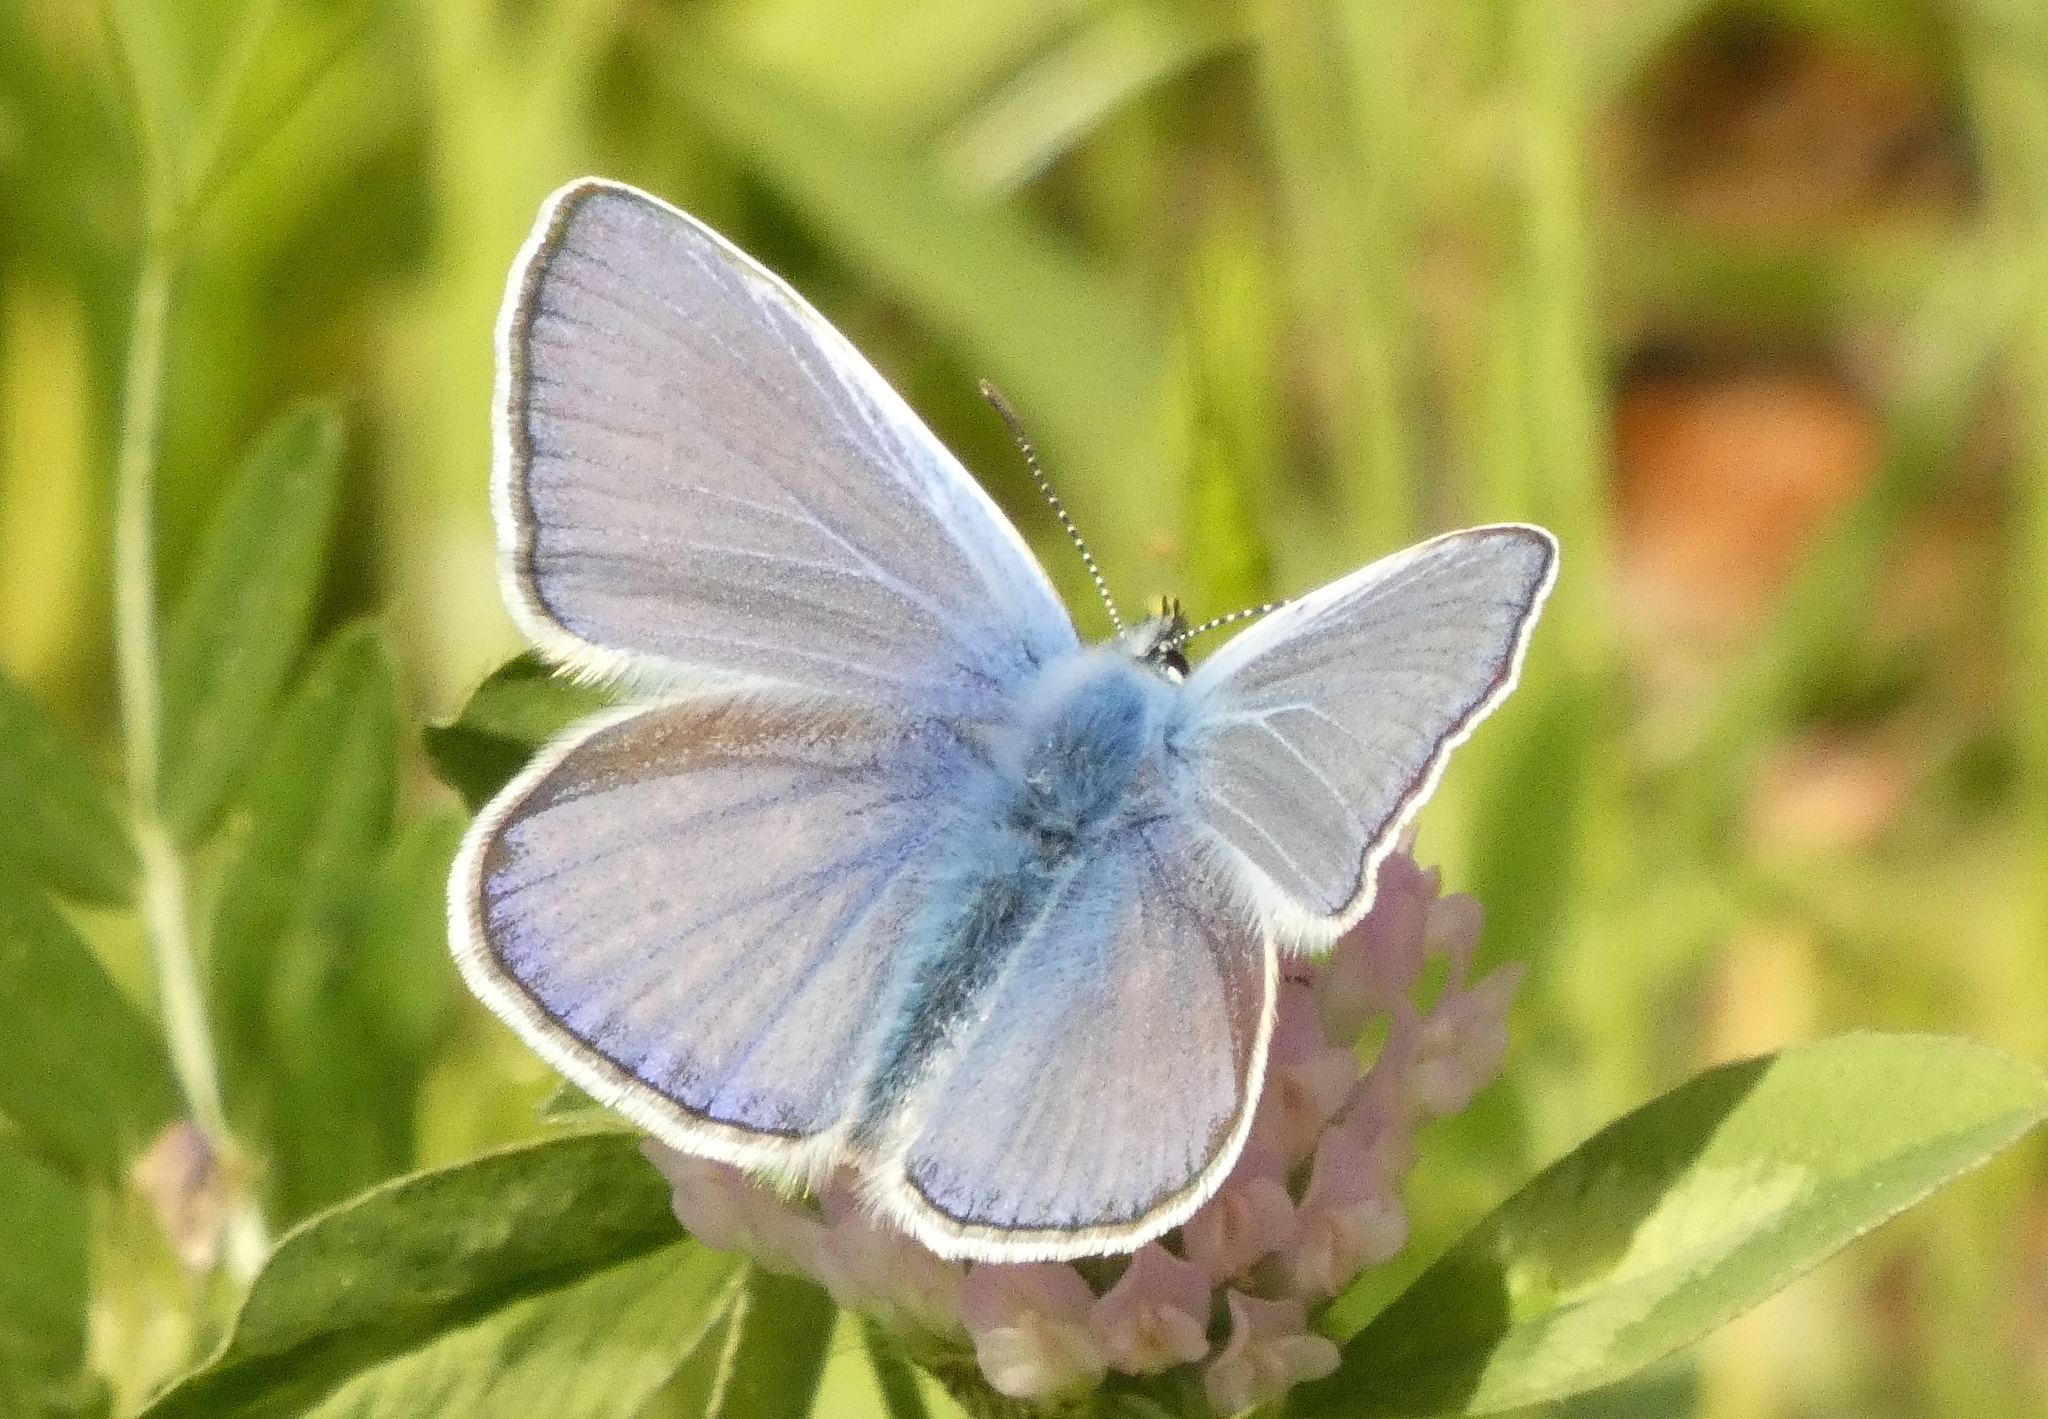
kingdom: Animalia
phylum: Arthropoda
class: Insecta
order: Lepidoptera
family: Lycaenidae
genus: Polyommatus
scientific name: Polyommatus icarus
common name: Common blue
